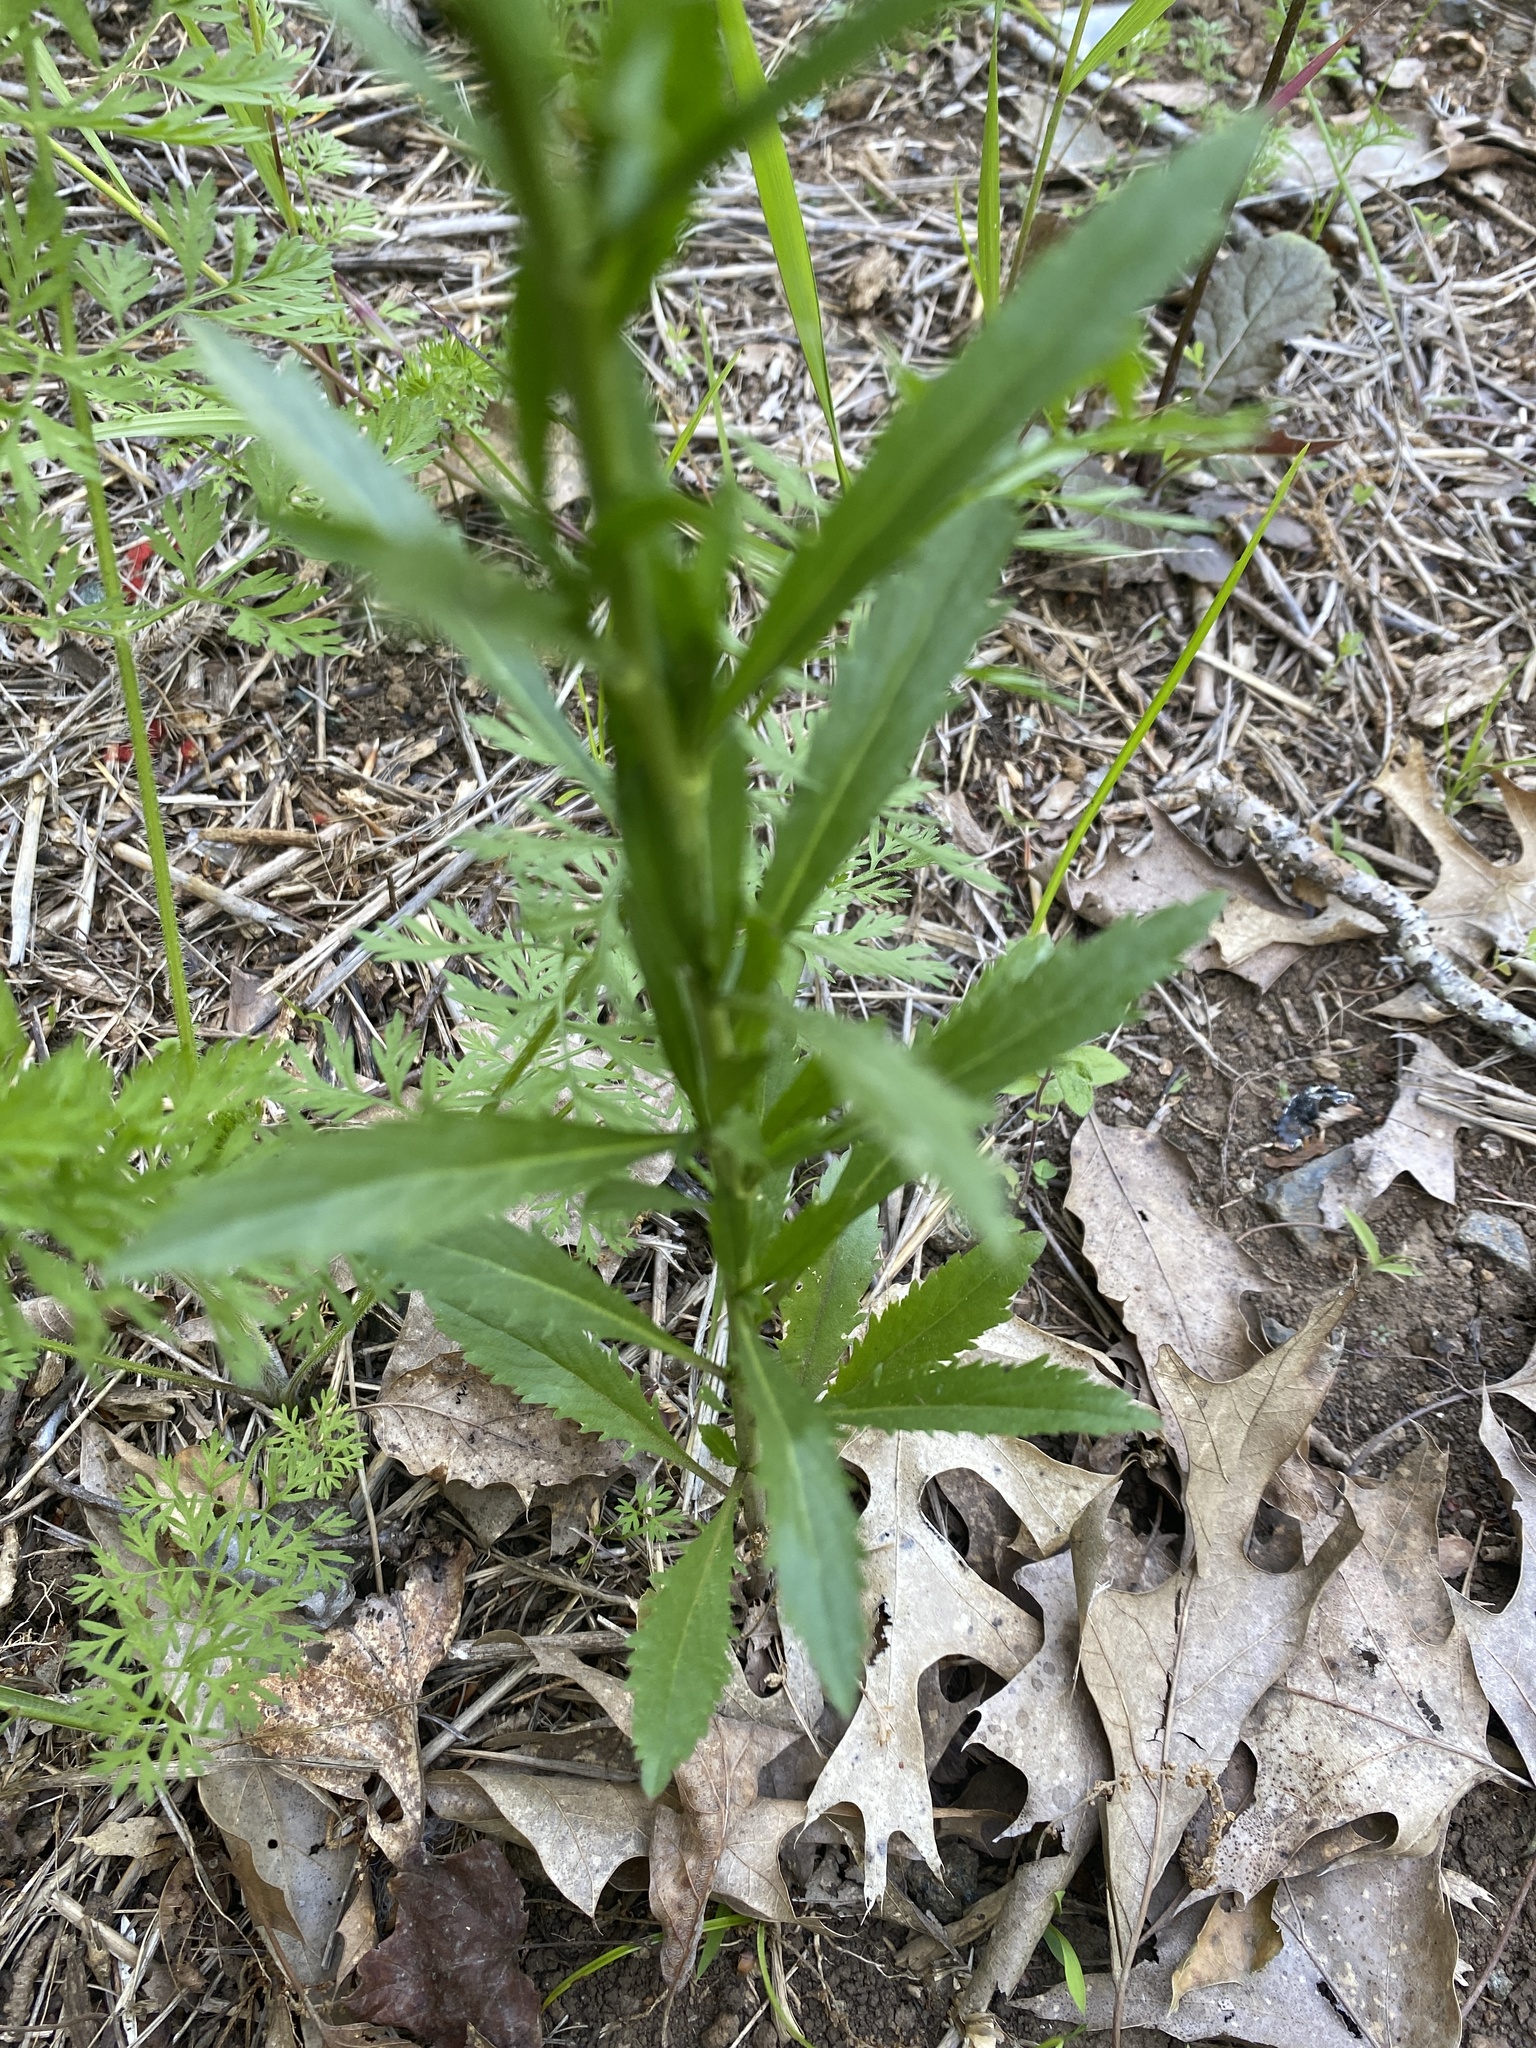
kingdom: Plantae
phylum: Tracheophyta
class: Magnoliopsida
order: Brassicales
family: Brassicaceae
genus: Lepidium
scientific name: Lepidium virginicum
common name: Least pepperwort
